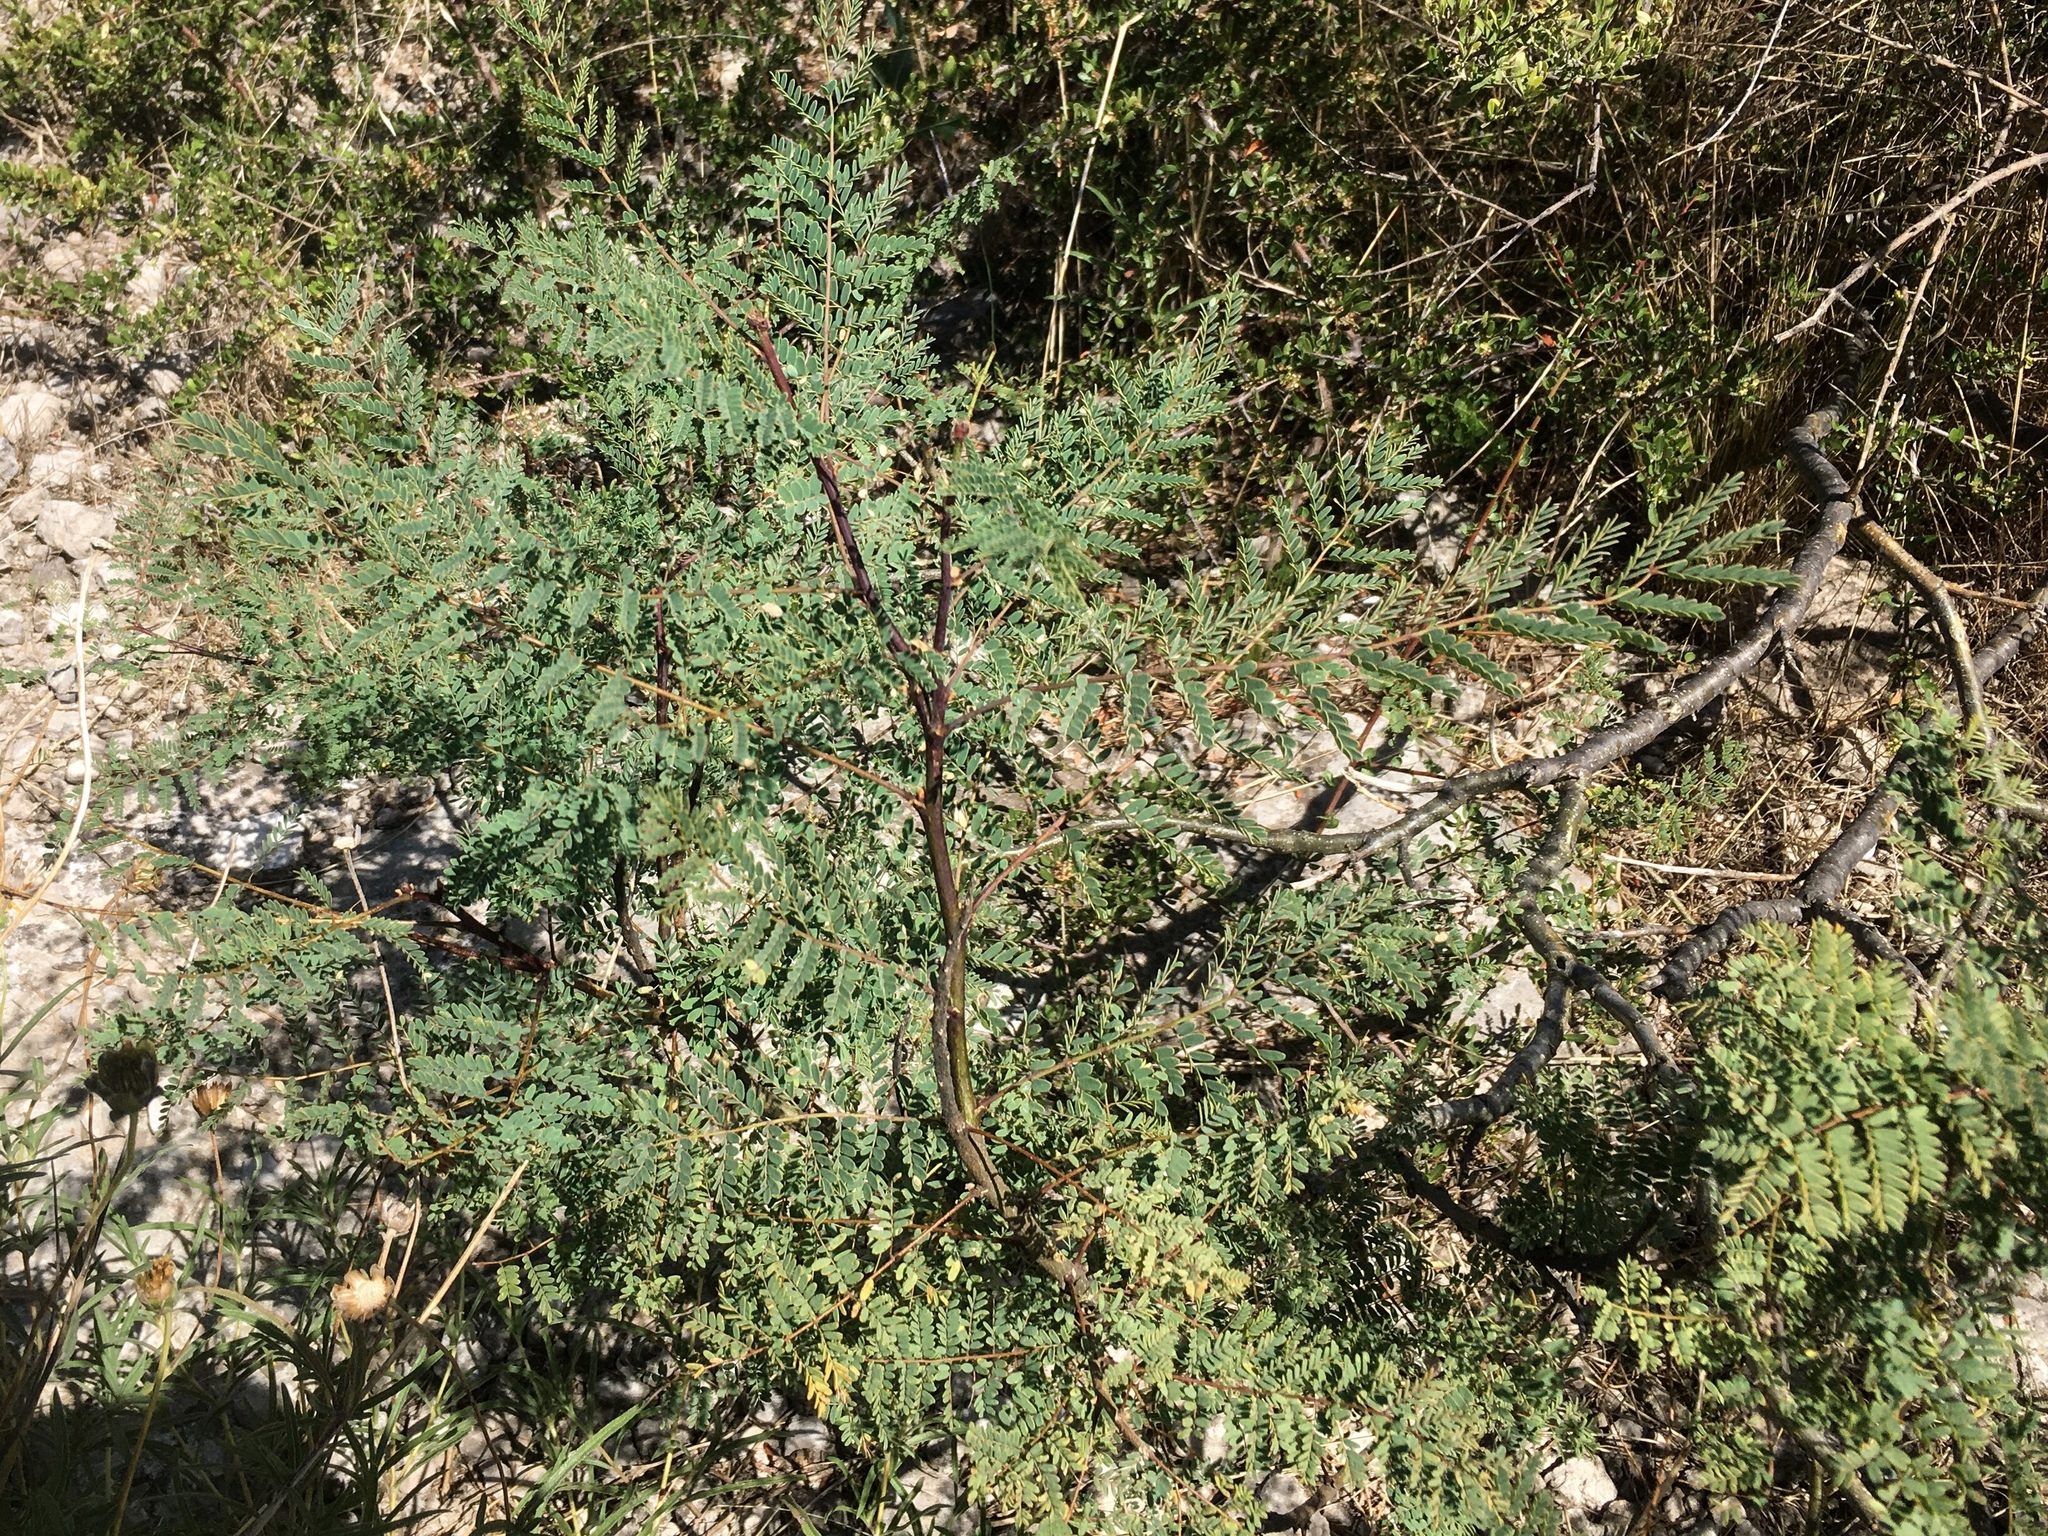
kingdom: Plantae
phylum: Tracheophyta
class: Magnoliopsida
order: Fabales
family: Fabaceae
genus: Erythrostemon
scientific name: Erythrostemon gilliesii
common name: Bird-of-paradise shrub
